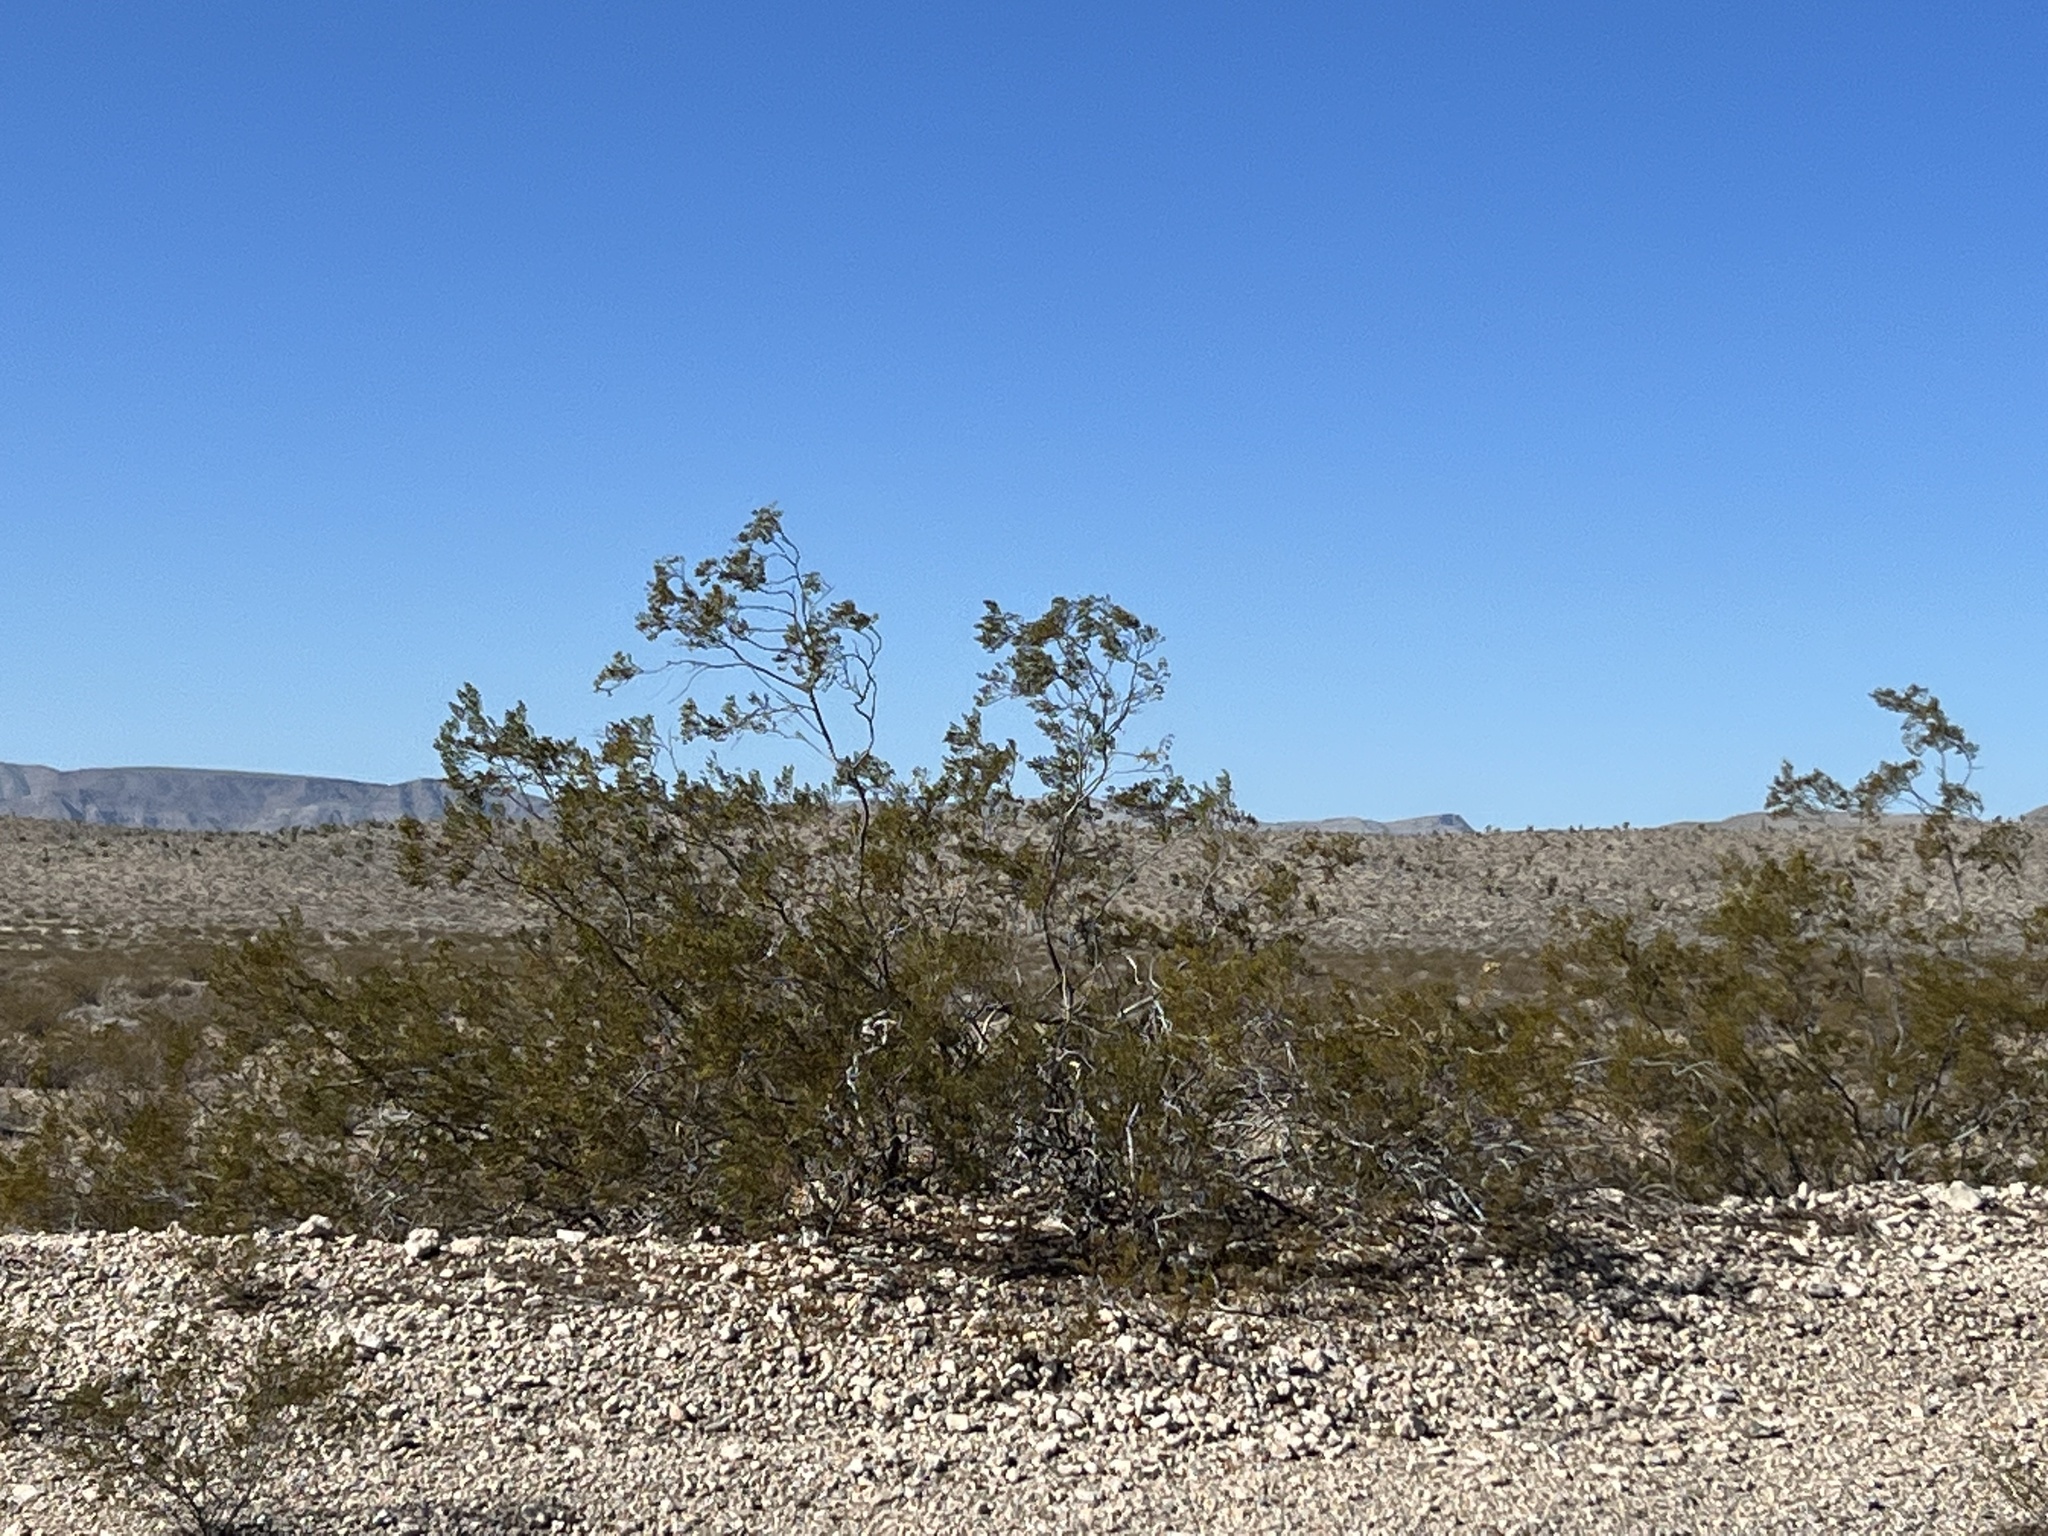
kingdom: Plantae
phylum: Tracheophyta
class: Magnoliopsida
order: Zygophyllales
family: Zygophyllaceae
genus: Larrea
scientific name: Larrea tridentata
